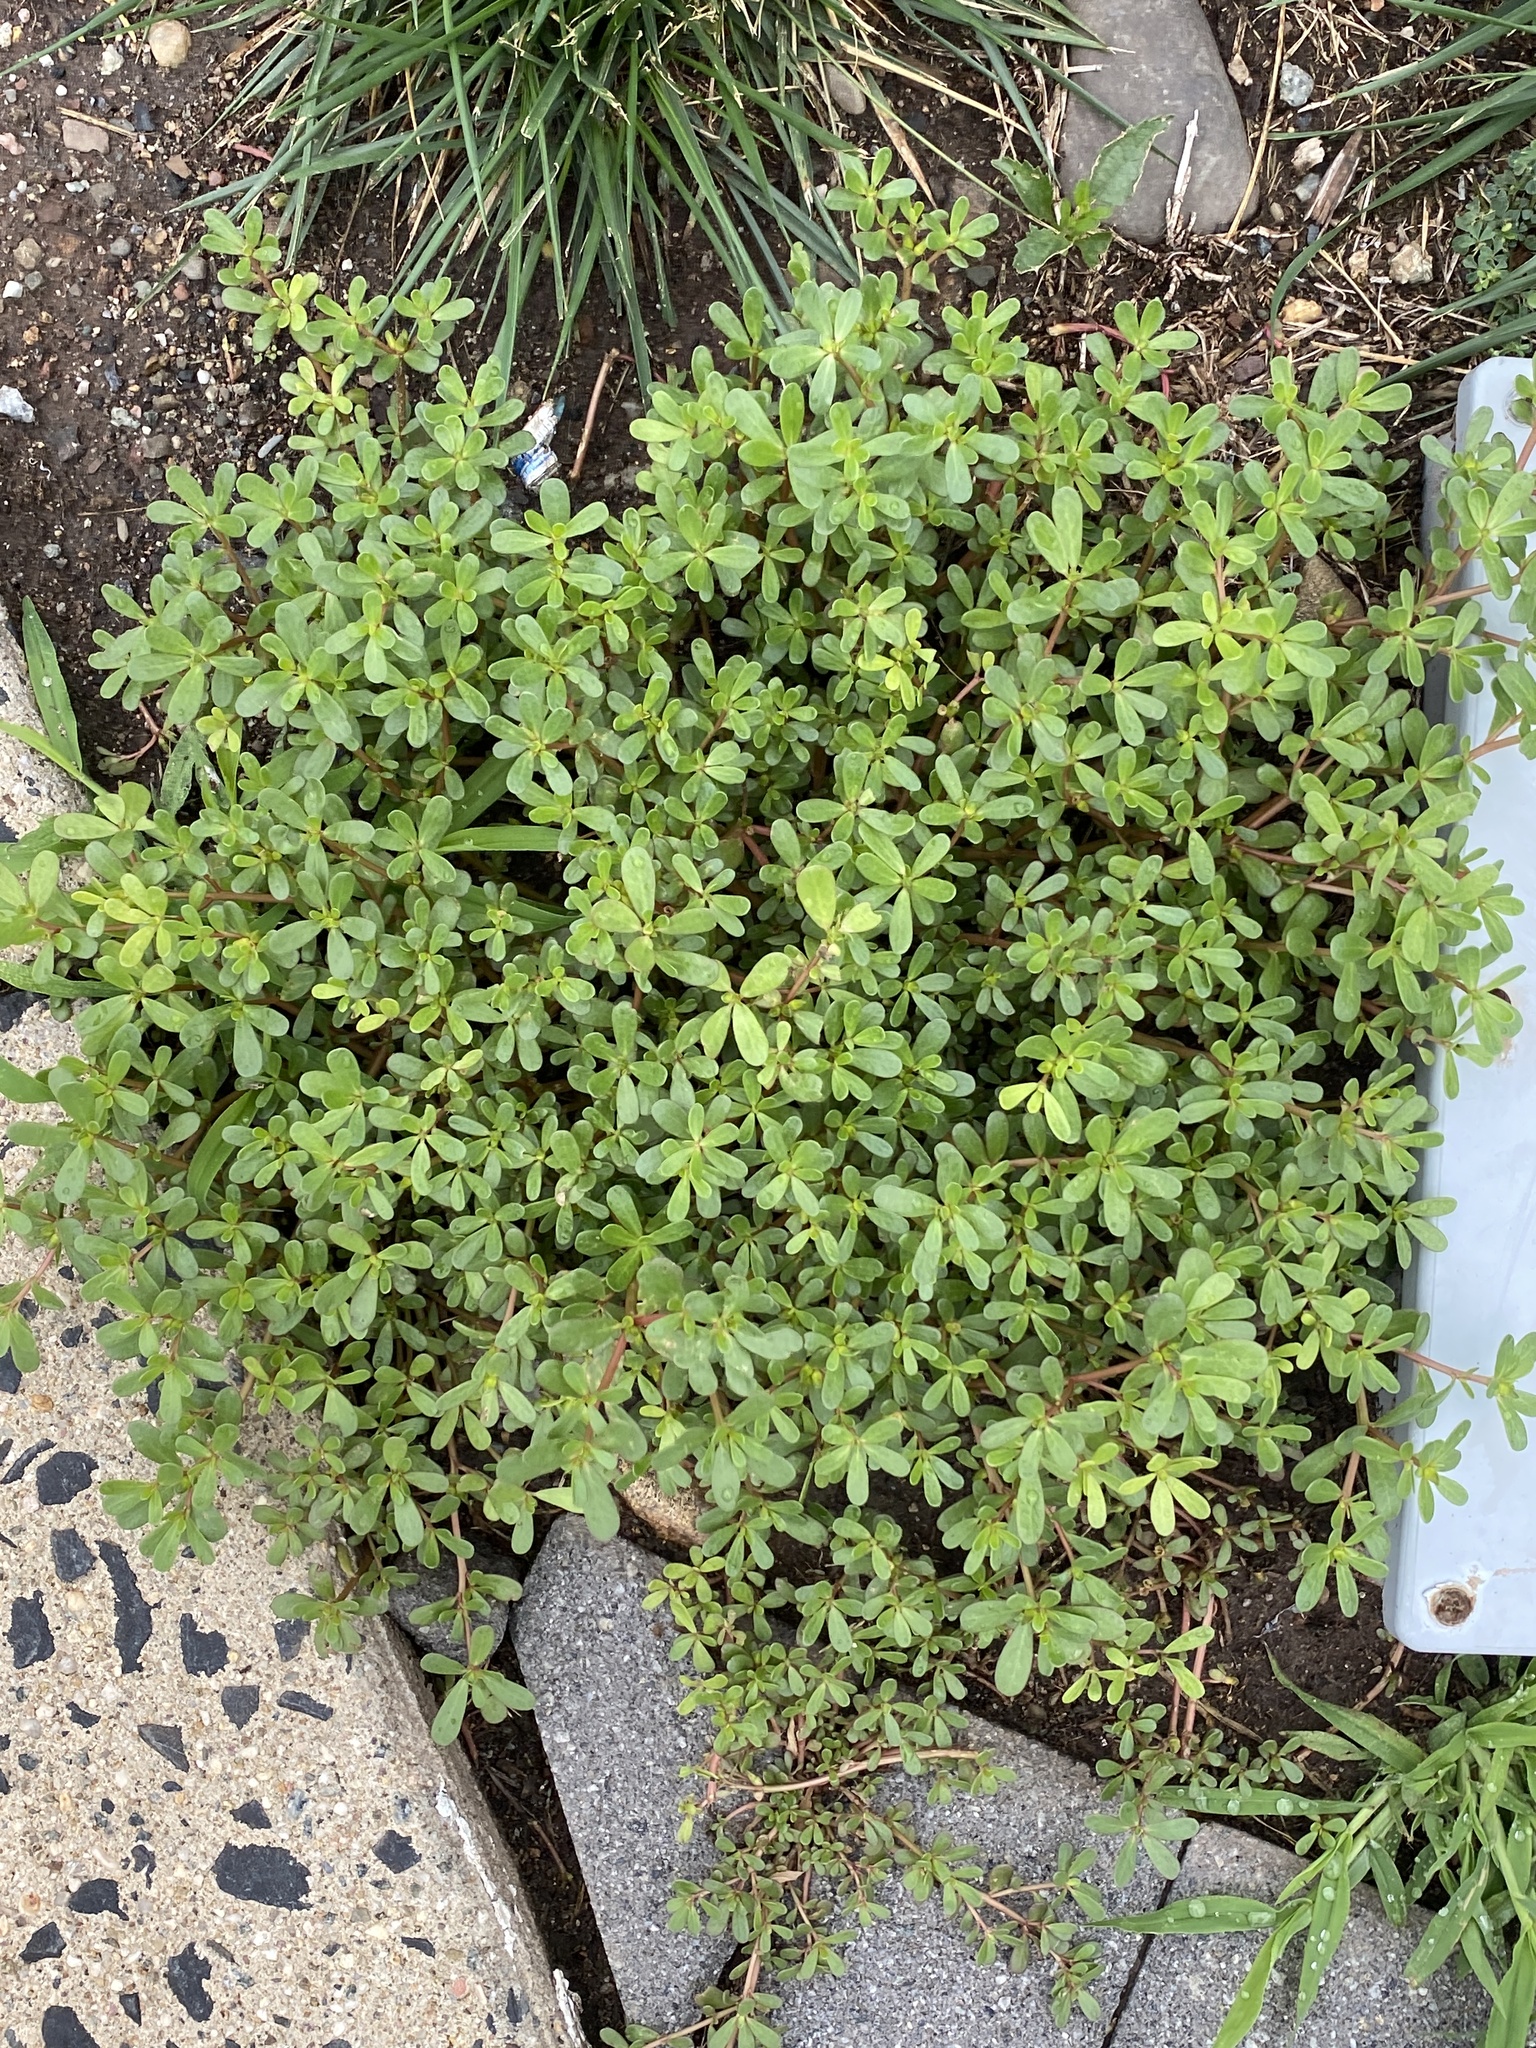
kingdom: Plantae
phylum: Tracheophyta
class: Magnoliopsida
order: Caryophyllales
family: Portulacaceae
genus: Portulaca
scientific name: Portulaca oleracea
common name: Common purslane
